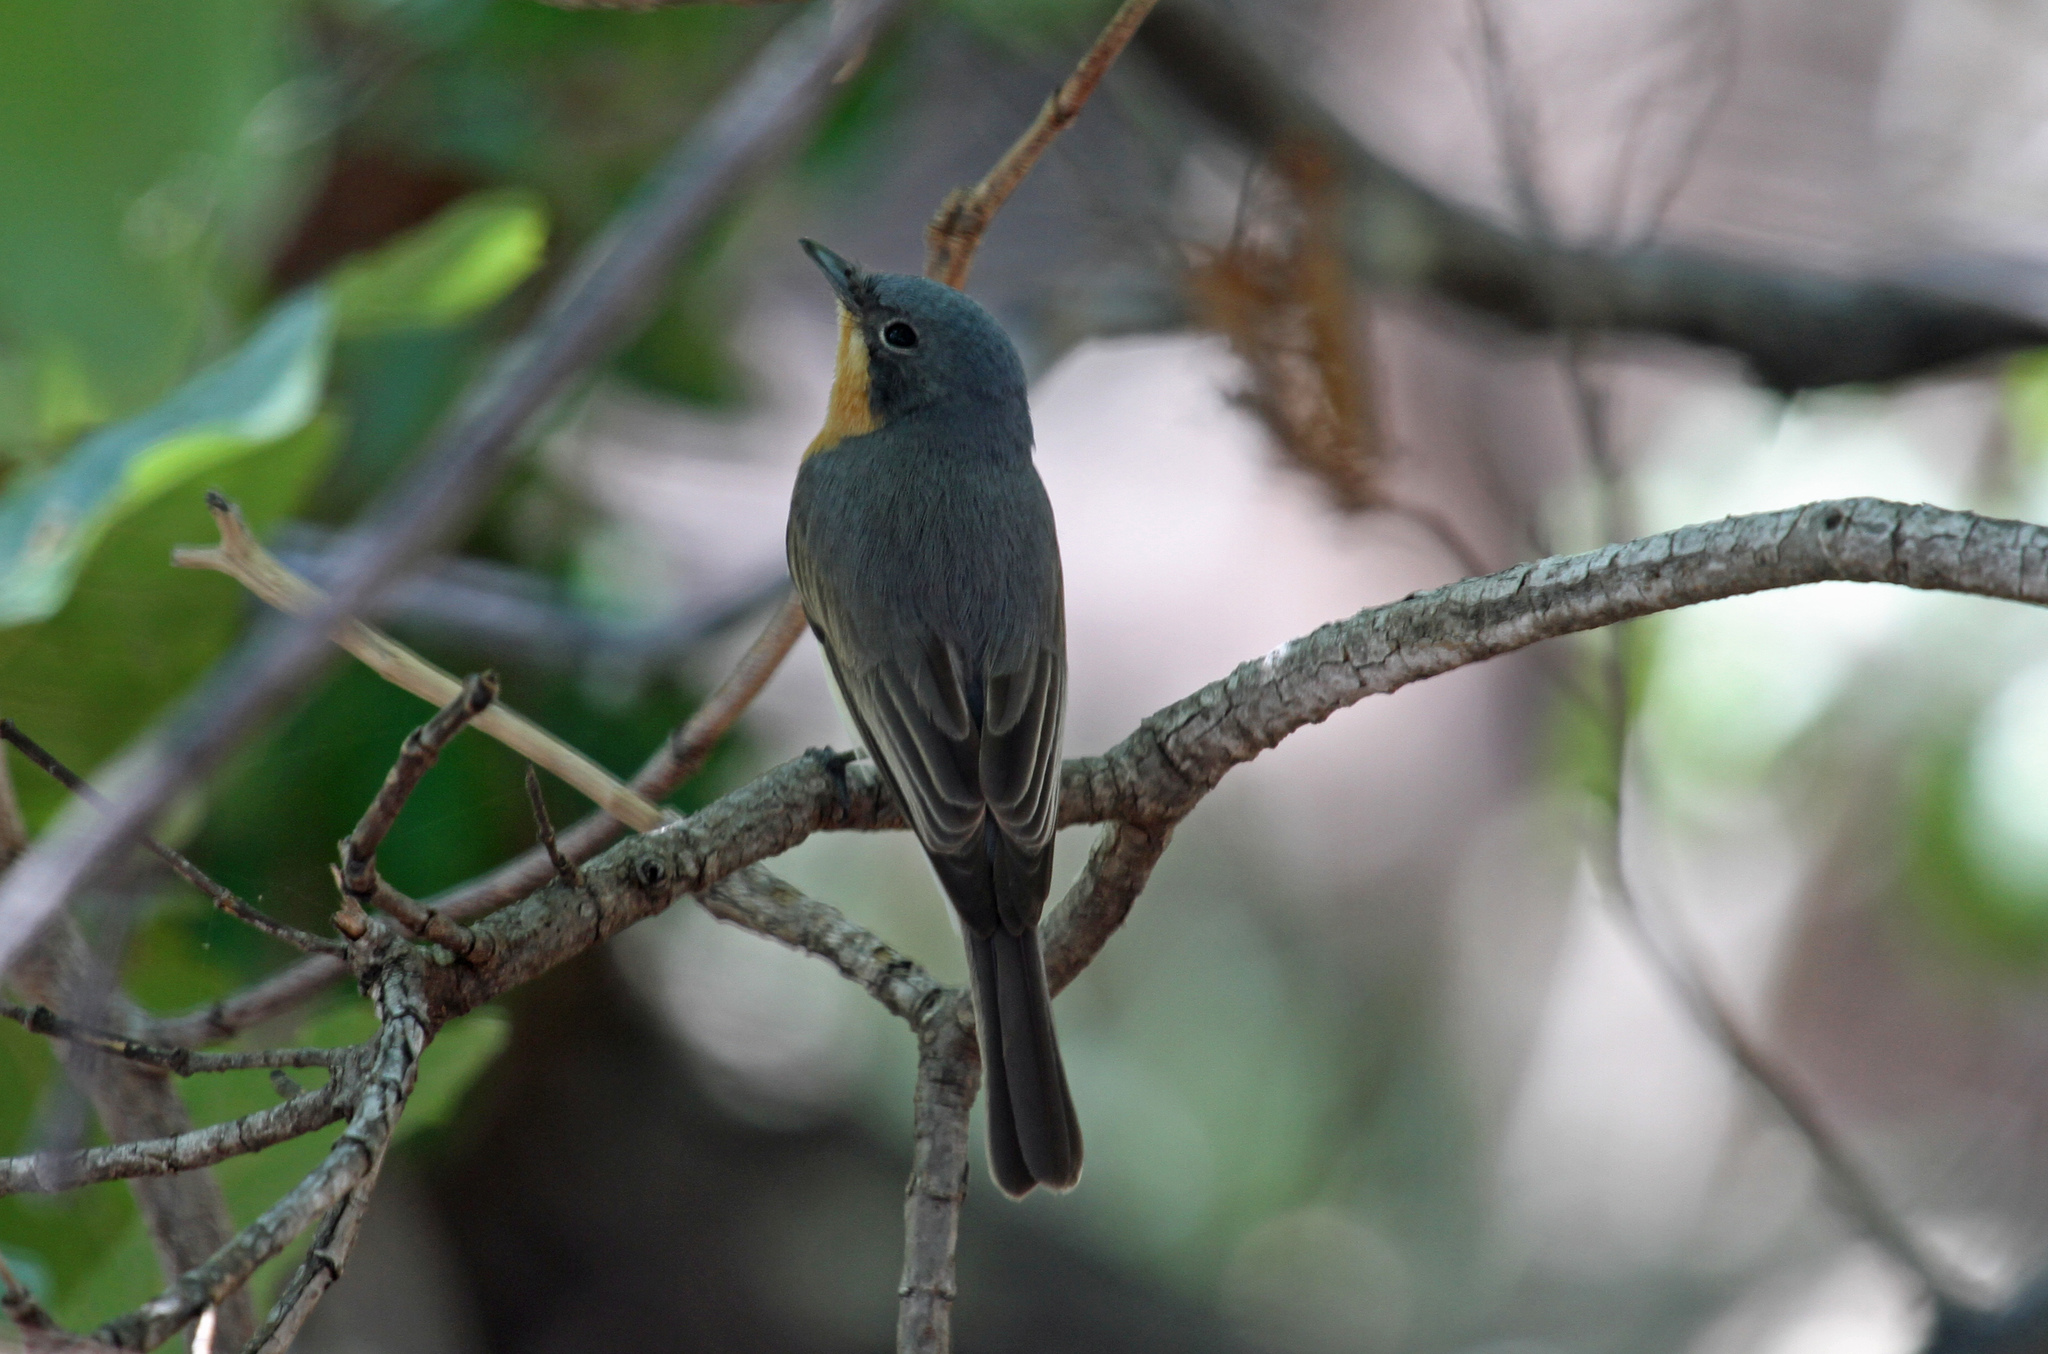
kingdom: Animalia
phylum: Chordata
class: Aves
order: Passeriformes
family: Monarchidae
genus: Myiagra
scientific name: Myiagra rubecula
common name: Leaden flycatcher
